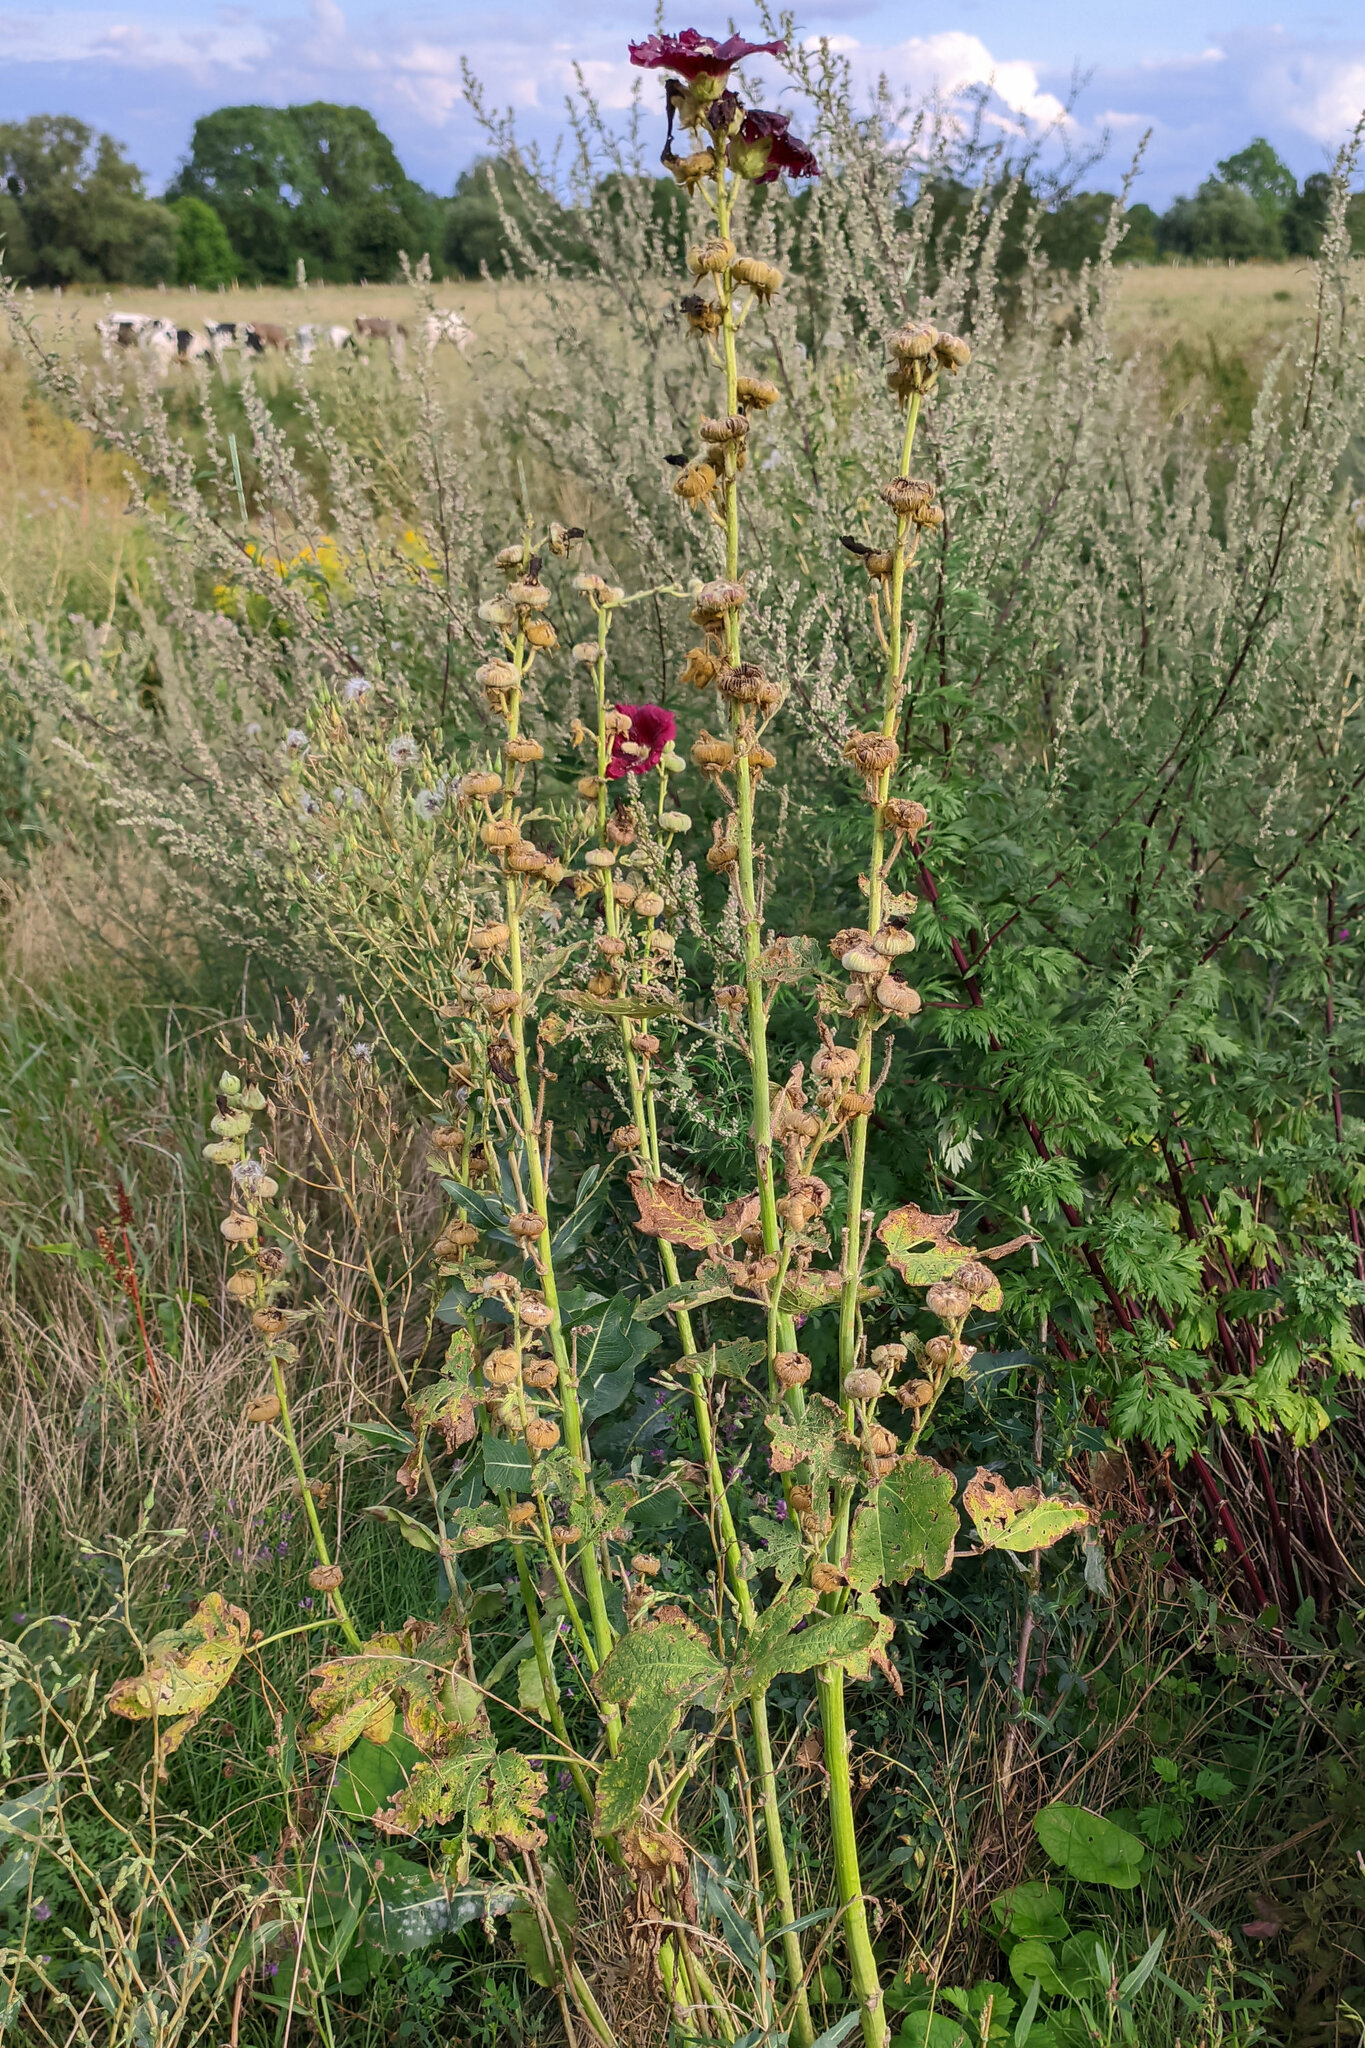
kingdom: Plantae
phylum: Tracheophyta
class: Magnoliopsida
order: Malvales
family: Malvaceae
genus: Alcea
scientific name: Alcea rosea
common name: Hollyhock
